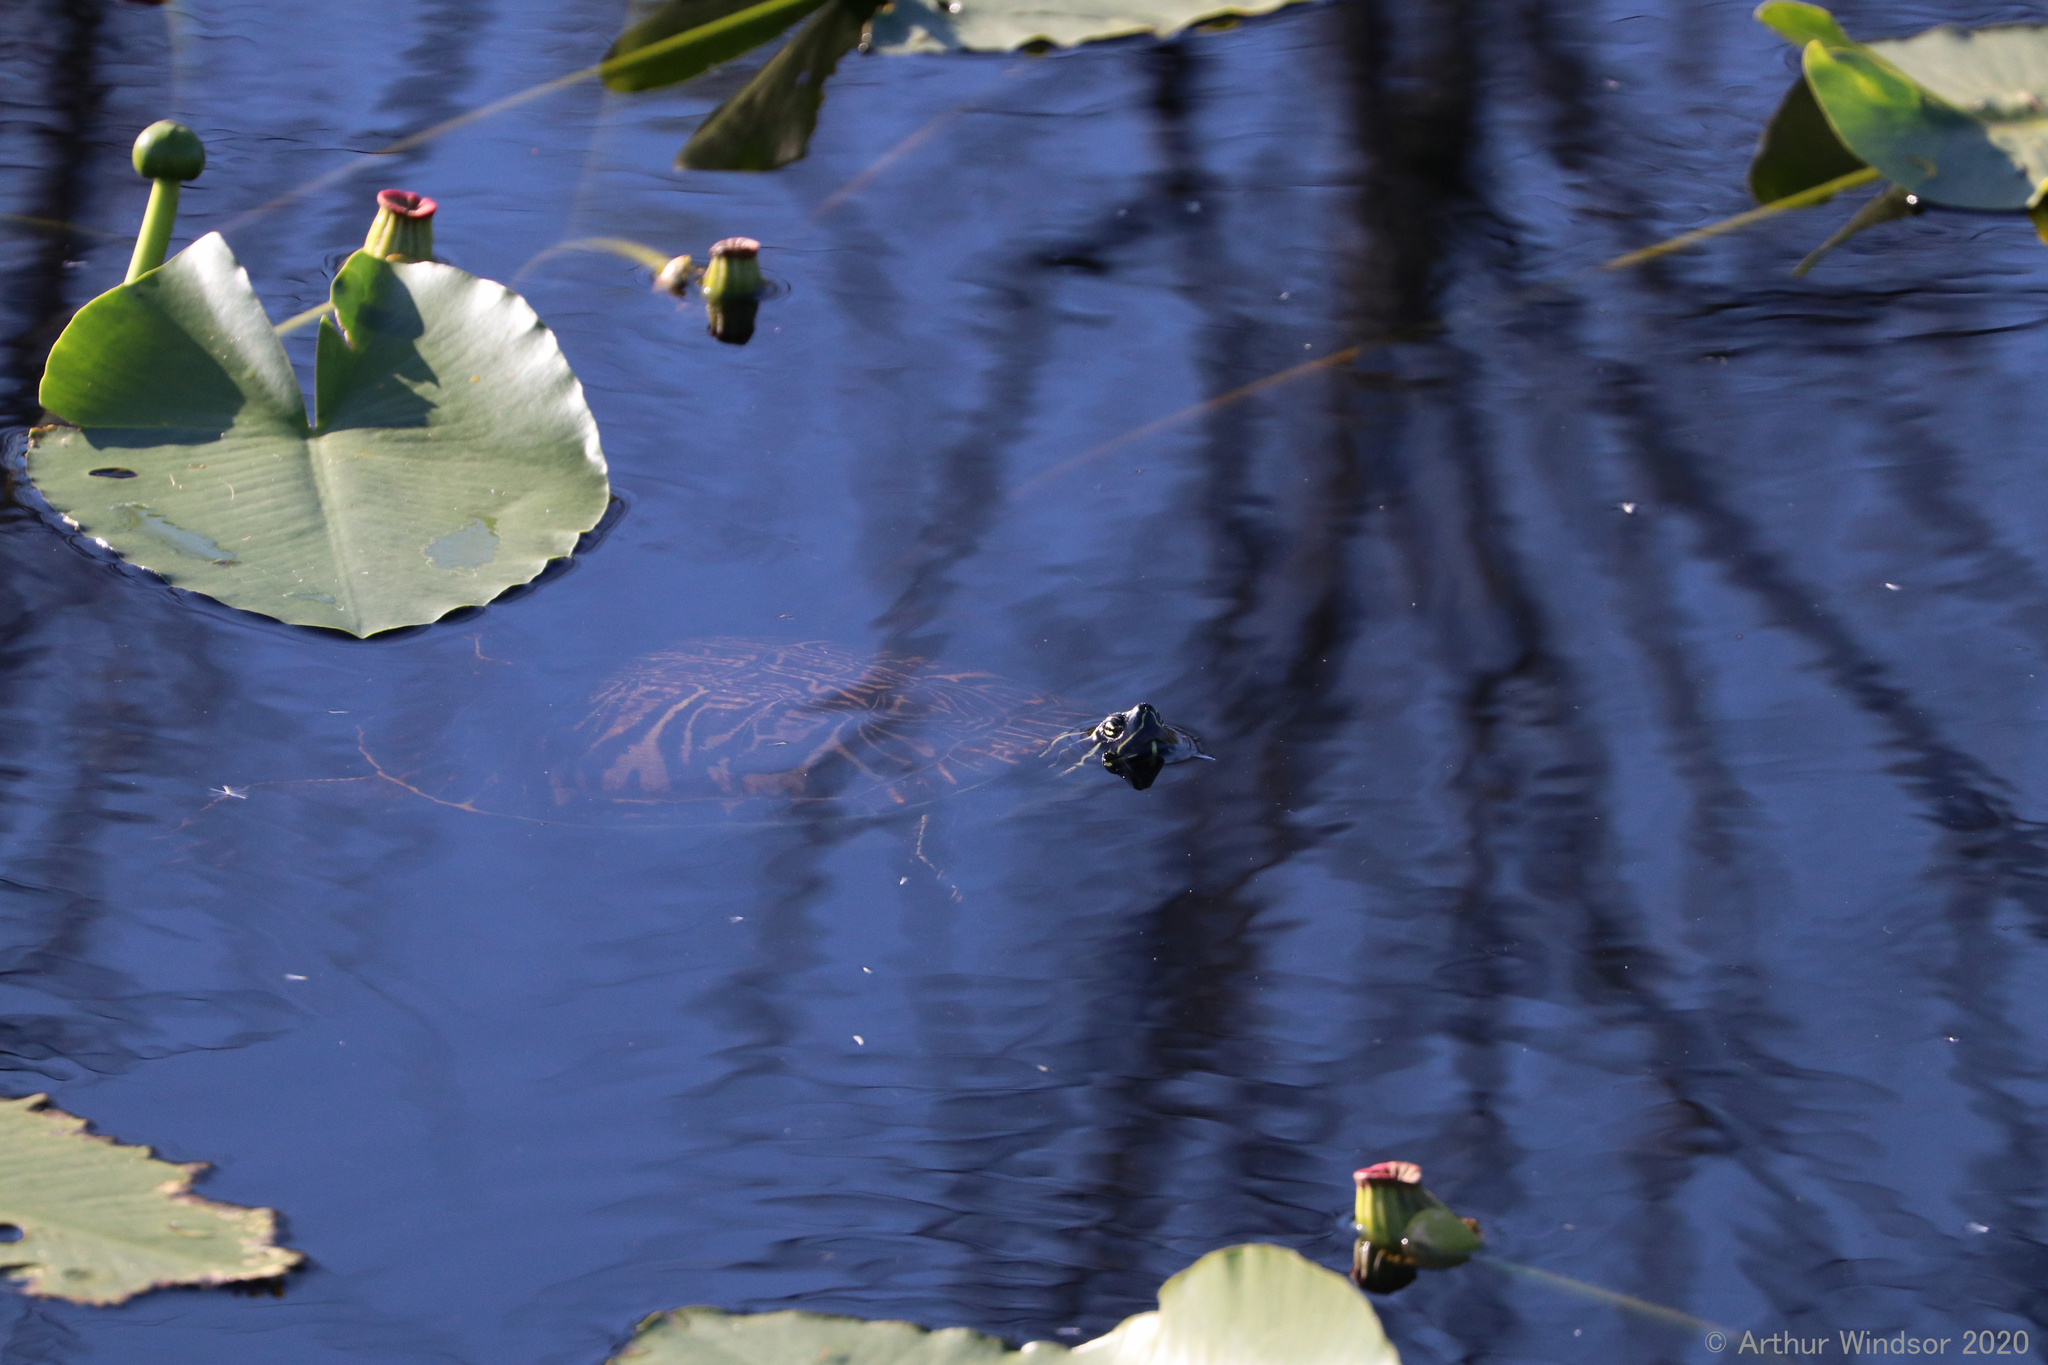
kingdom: Animalia
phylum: Chordata
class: Testudines
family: Emydidae
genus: Pseudemys
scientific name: Pseudemys peninsularis
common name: Peninsula cooter
